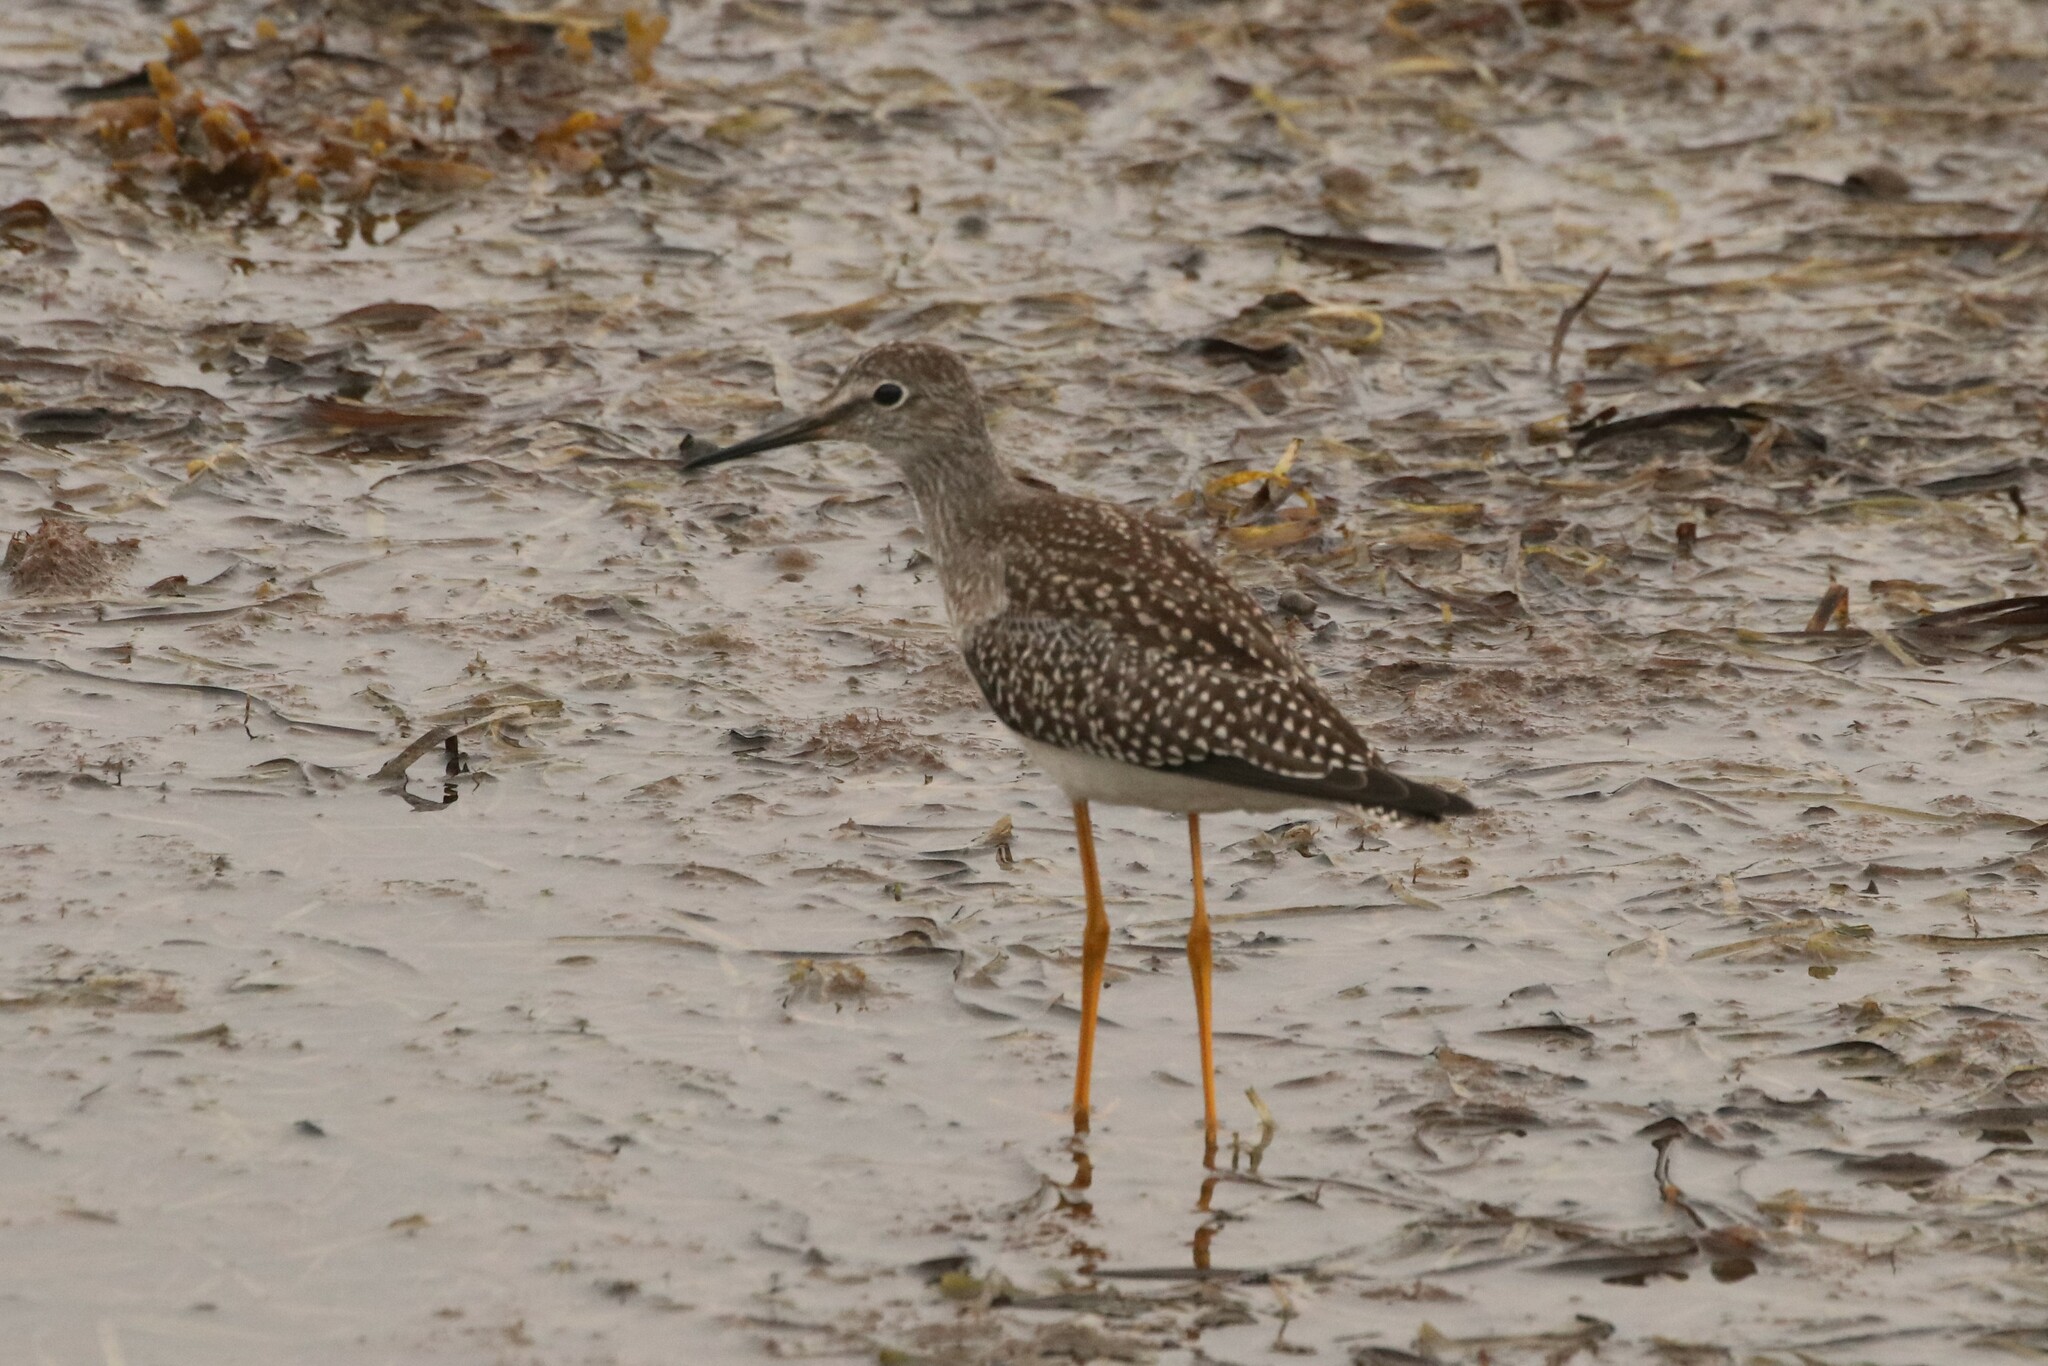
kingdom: Animalia
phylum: Chordata
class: Aves
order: Charadriiformes
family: Scolopacidae
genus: Tringa
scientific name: Tringa flavipes
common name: Lesser yellowlegs
